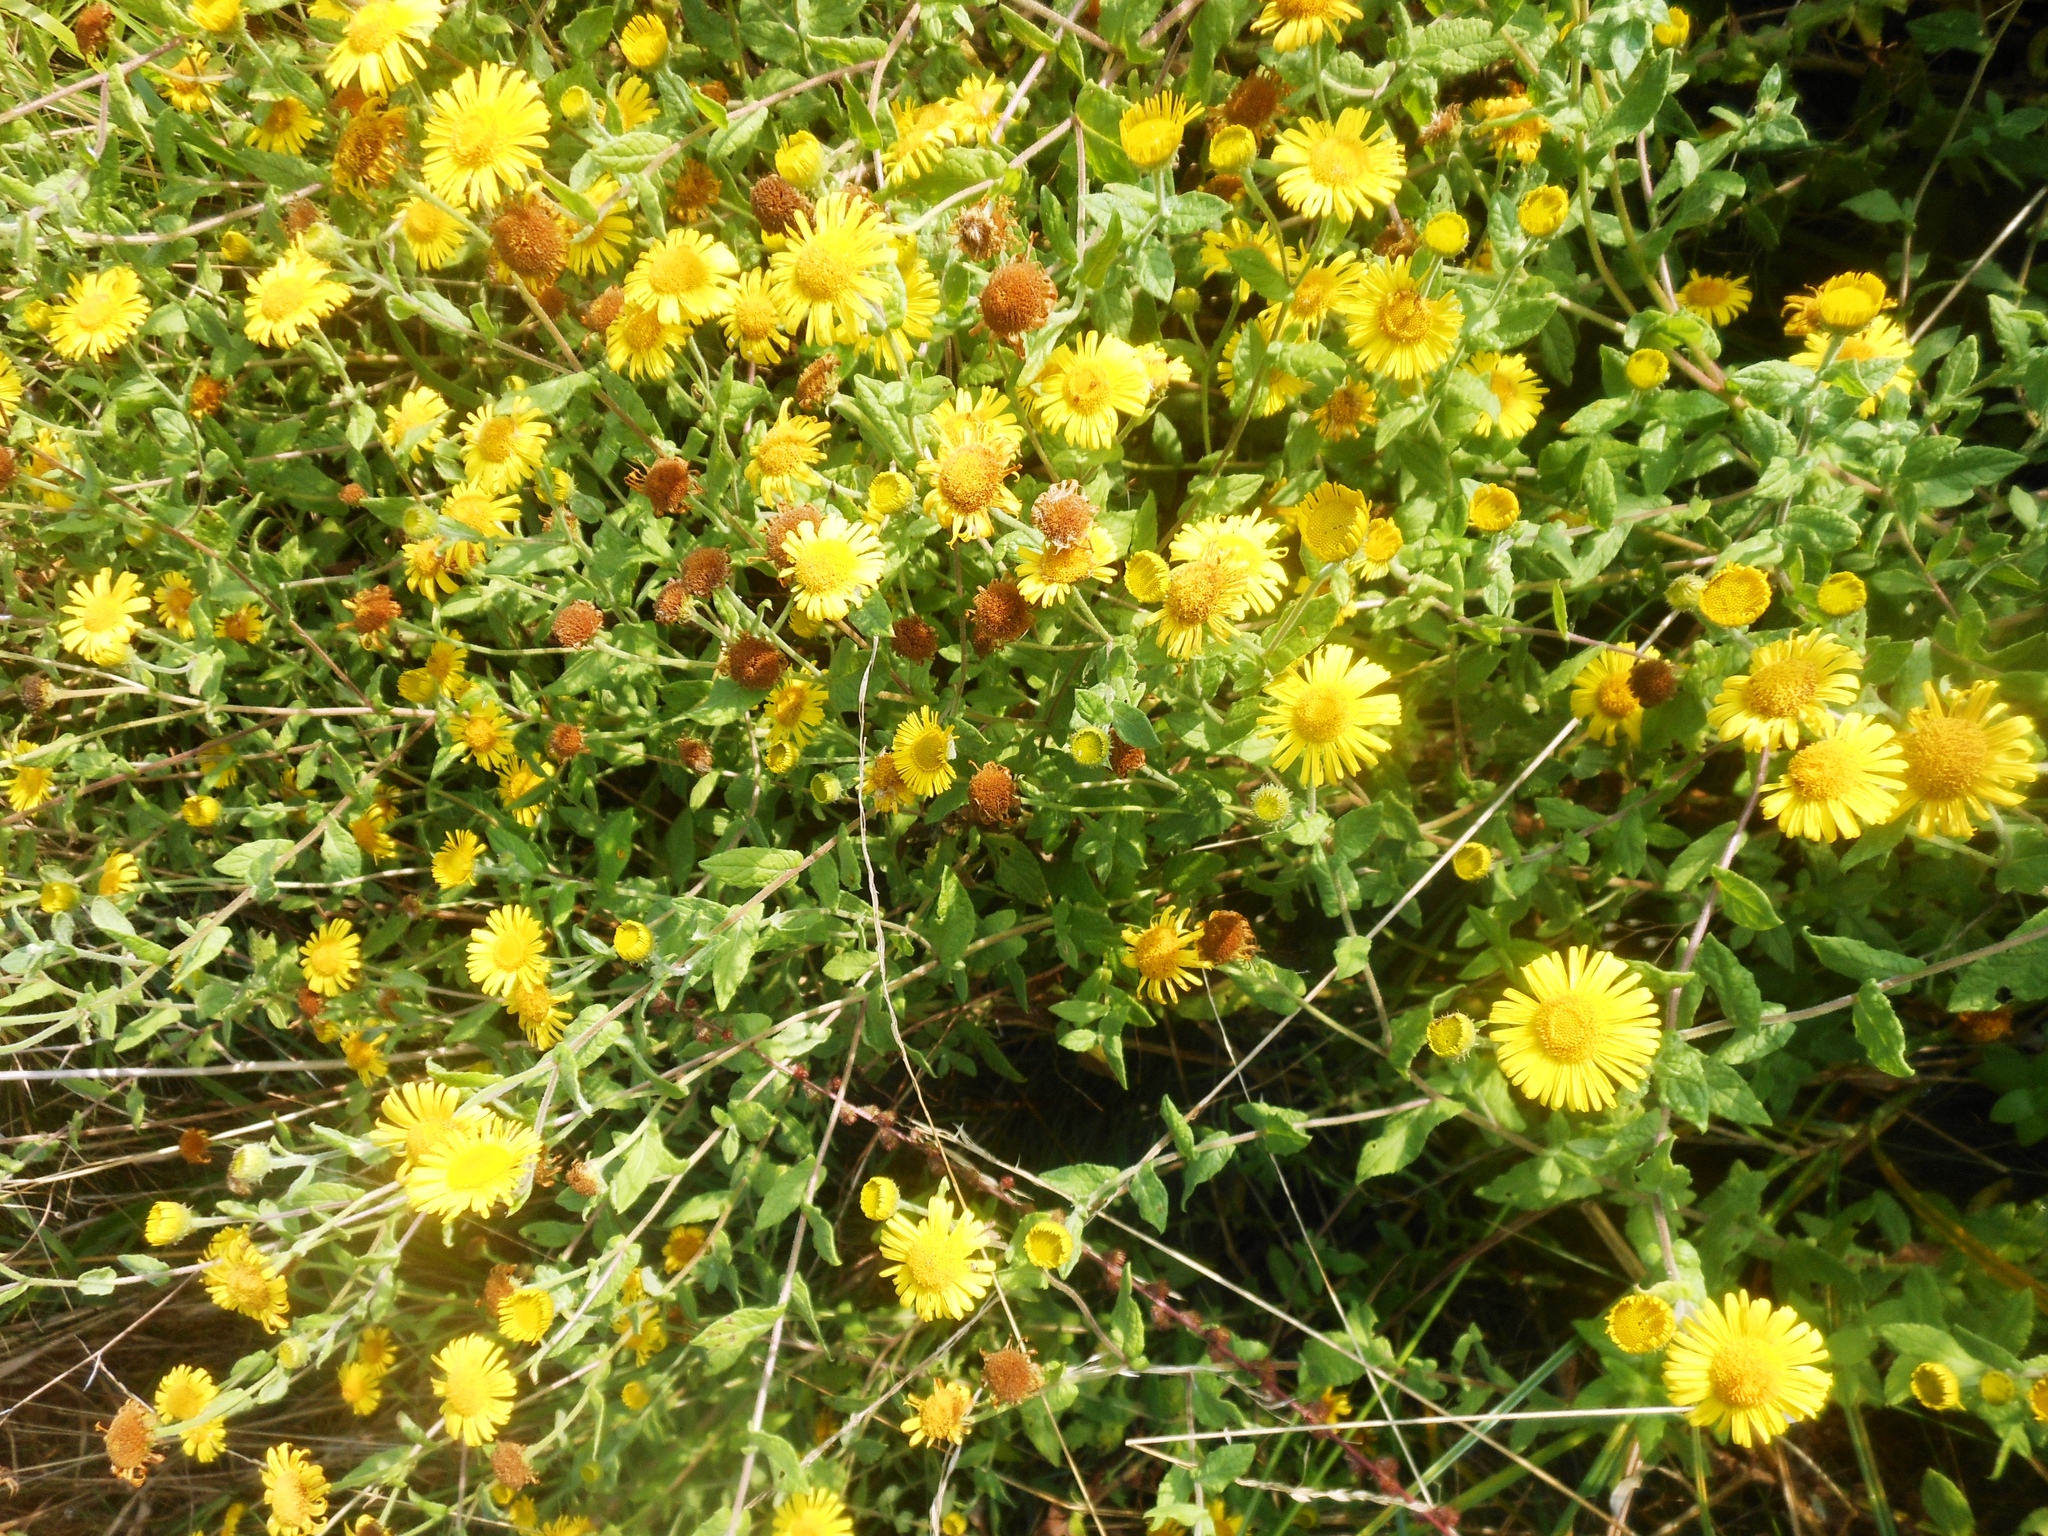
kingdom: Plantae
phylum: Tracheophyta
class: Magnoliopsida
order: Asterales
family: Asteraceae
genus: Pulicaria
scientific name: Pulicaria dysenterica
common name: Common fleabane
